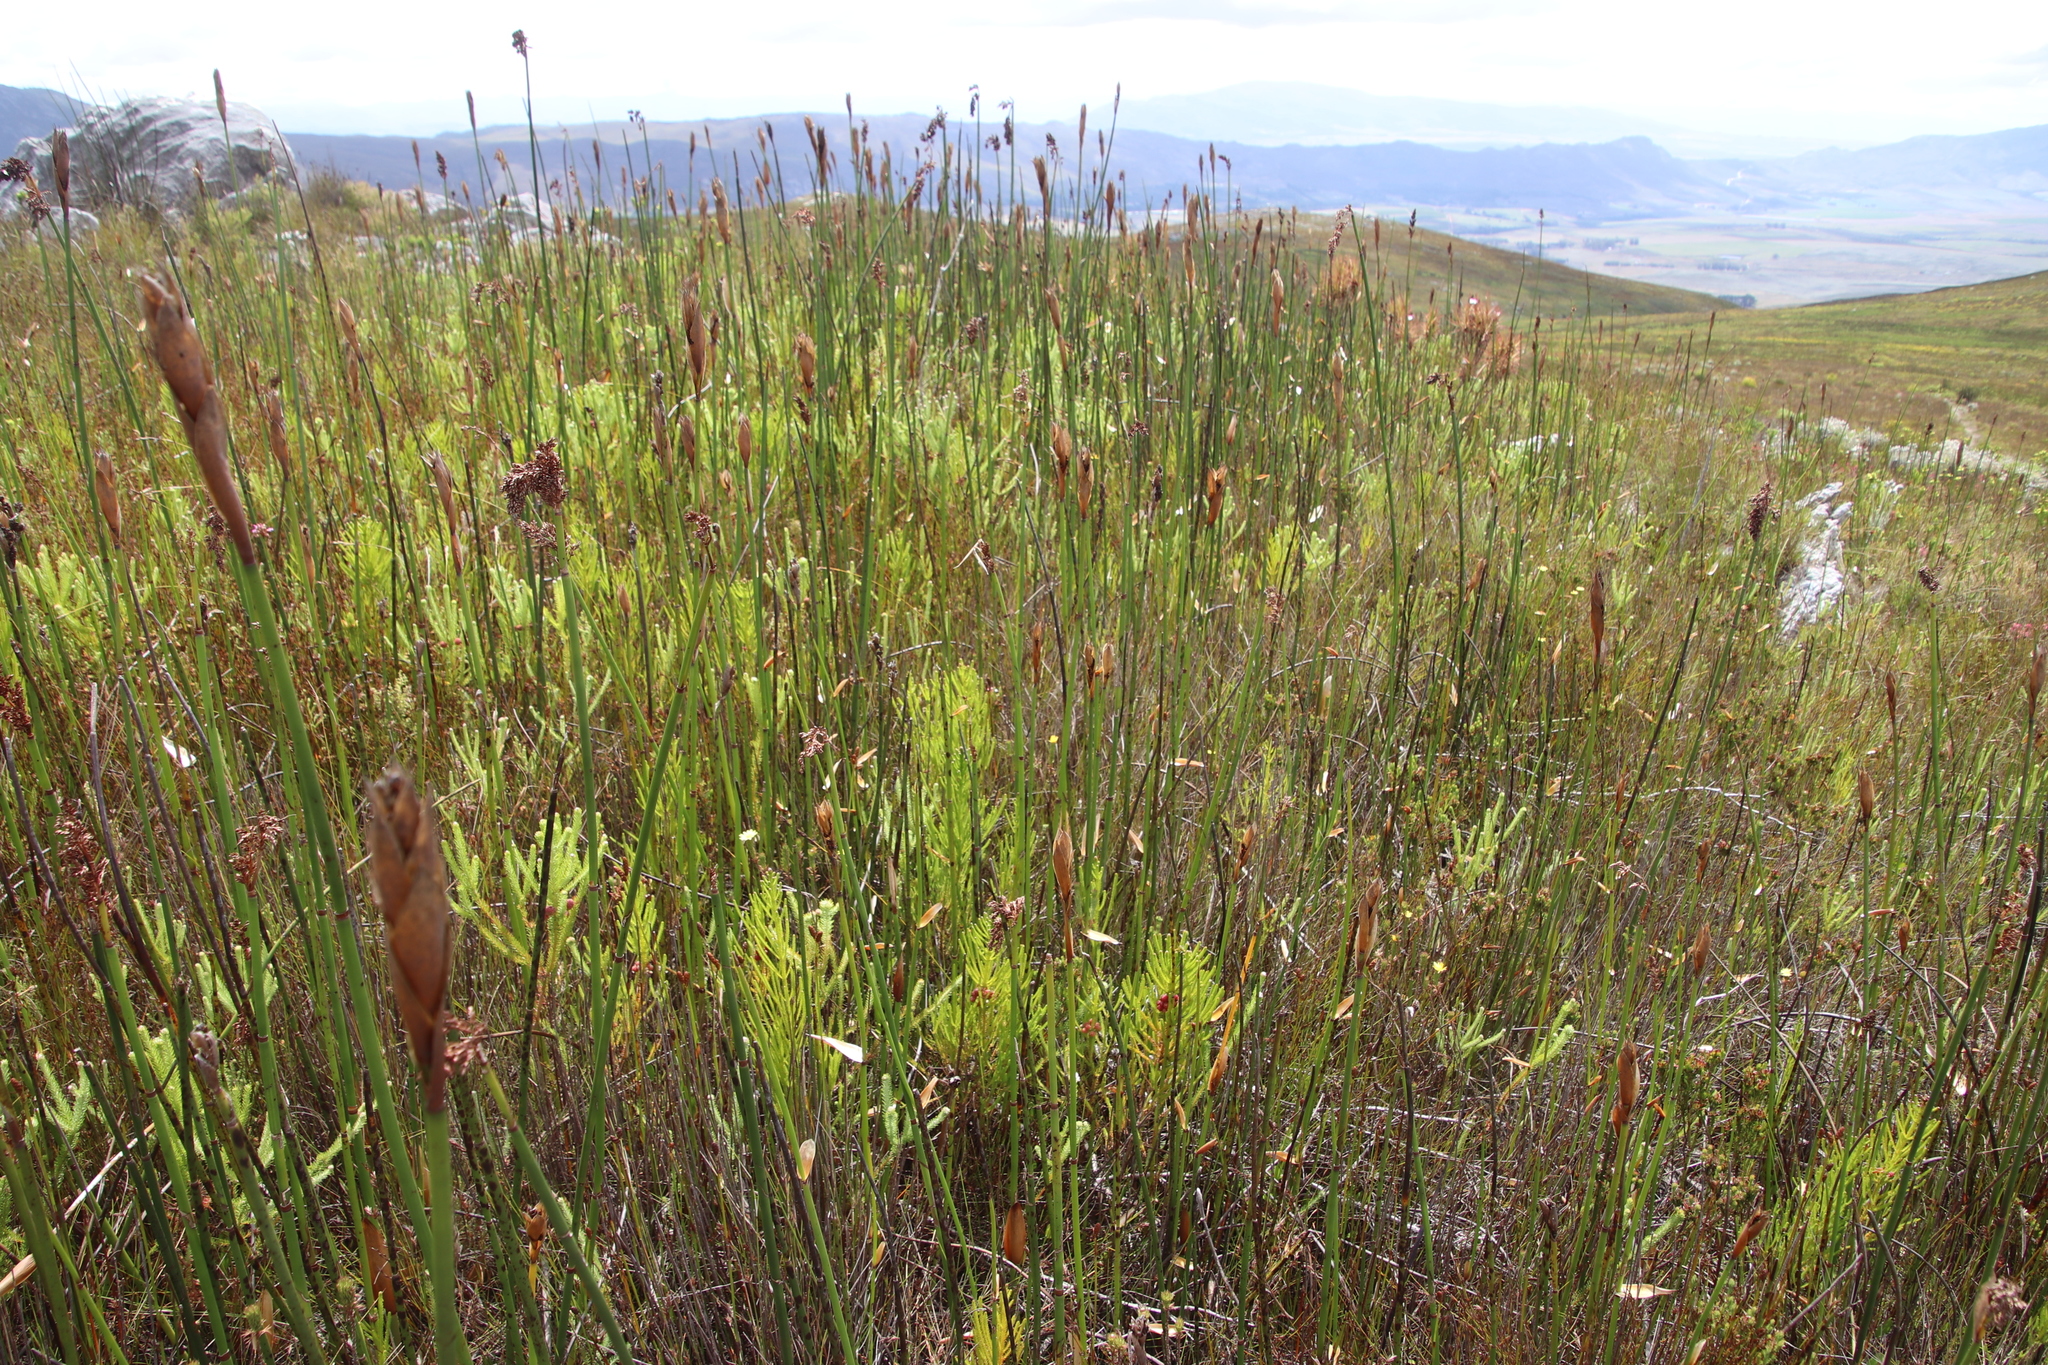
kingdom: Plantae
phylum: Tracheophyta
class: Liliopsida
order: Poales
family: Restionaceae
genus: Elegia
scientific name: Elegia mucronata
